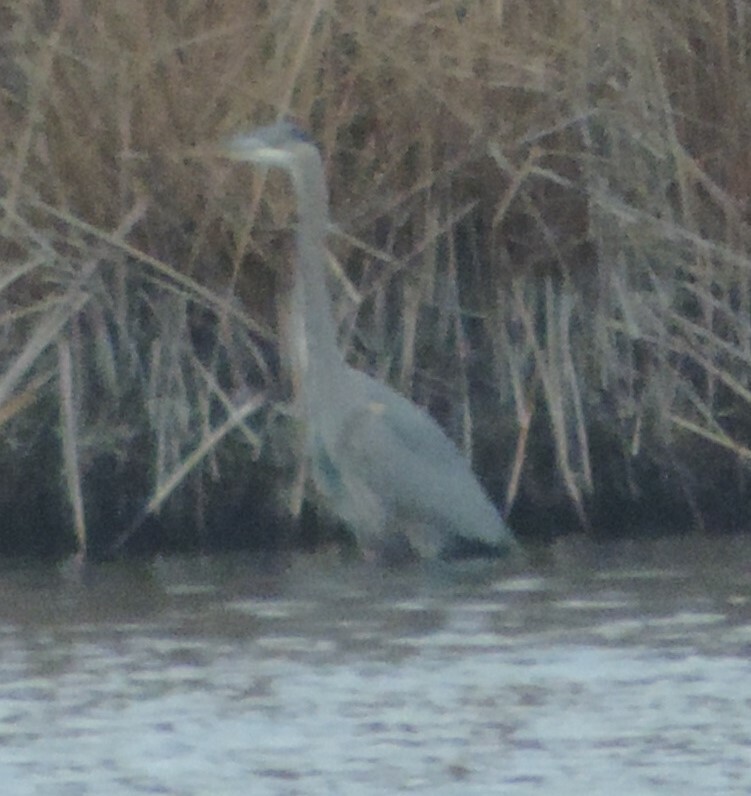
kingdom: Animalia
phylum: Chordata
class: Aves
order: Pelecaniformes
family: Ardeidae
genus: Ardea
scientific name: Ardea herodias
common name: Great blue heron
